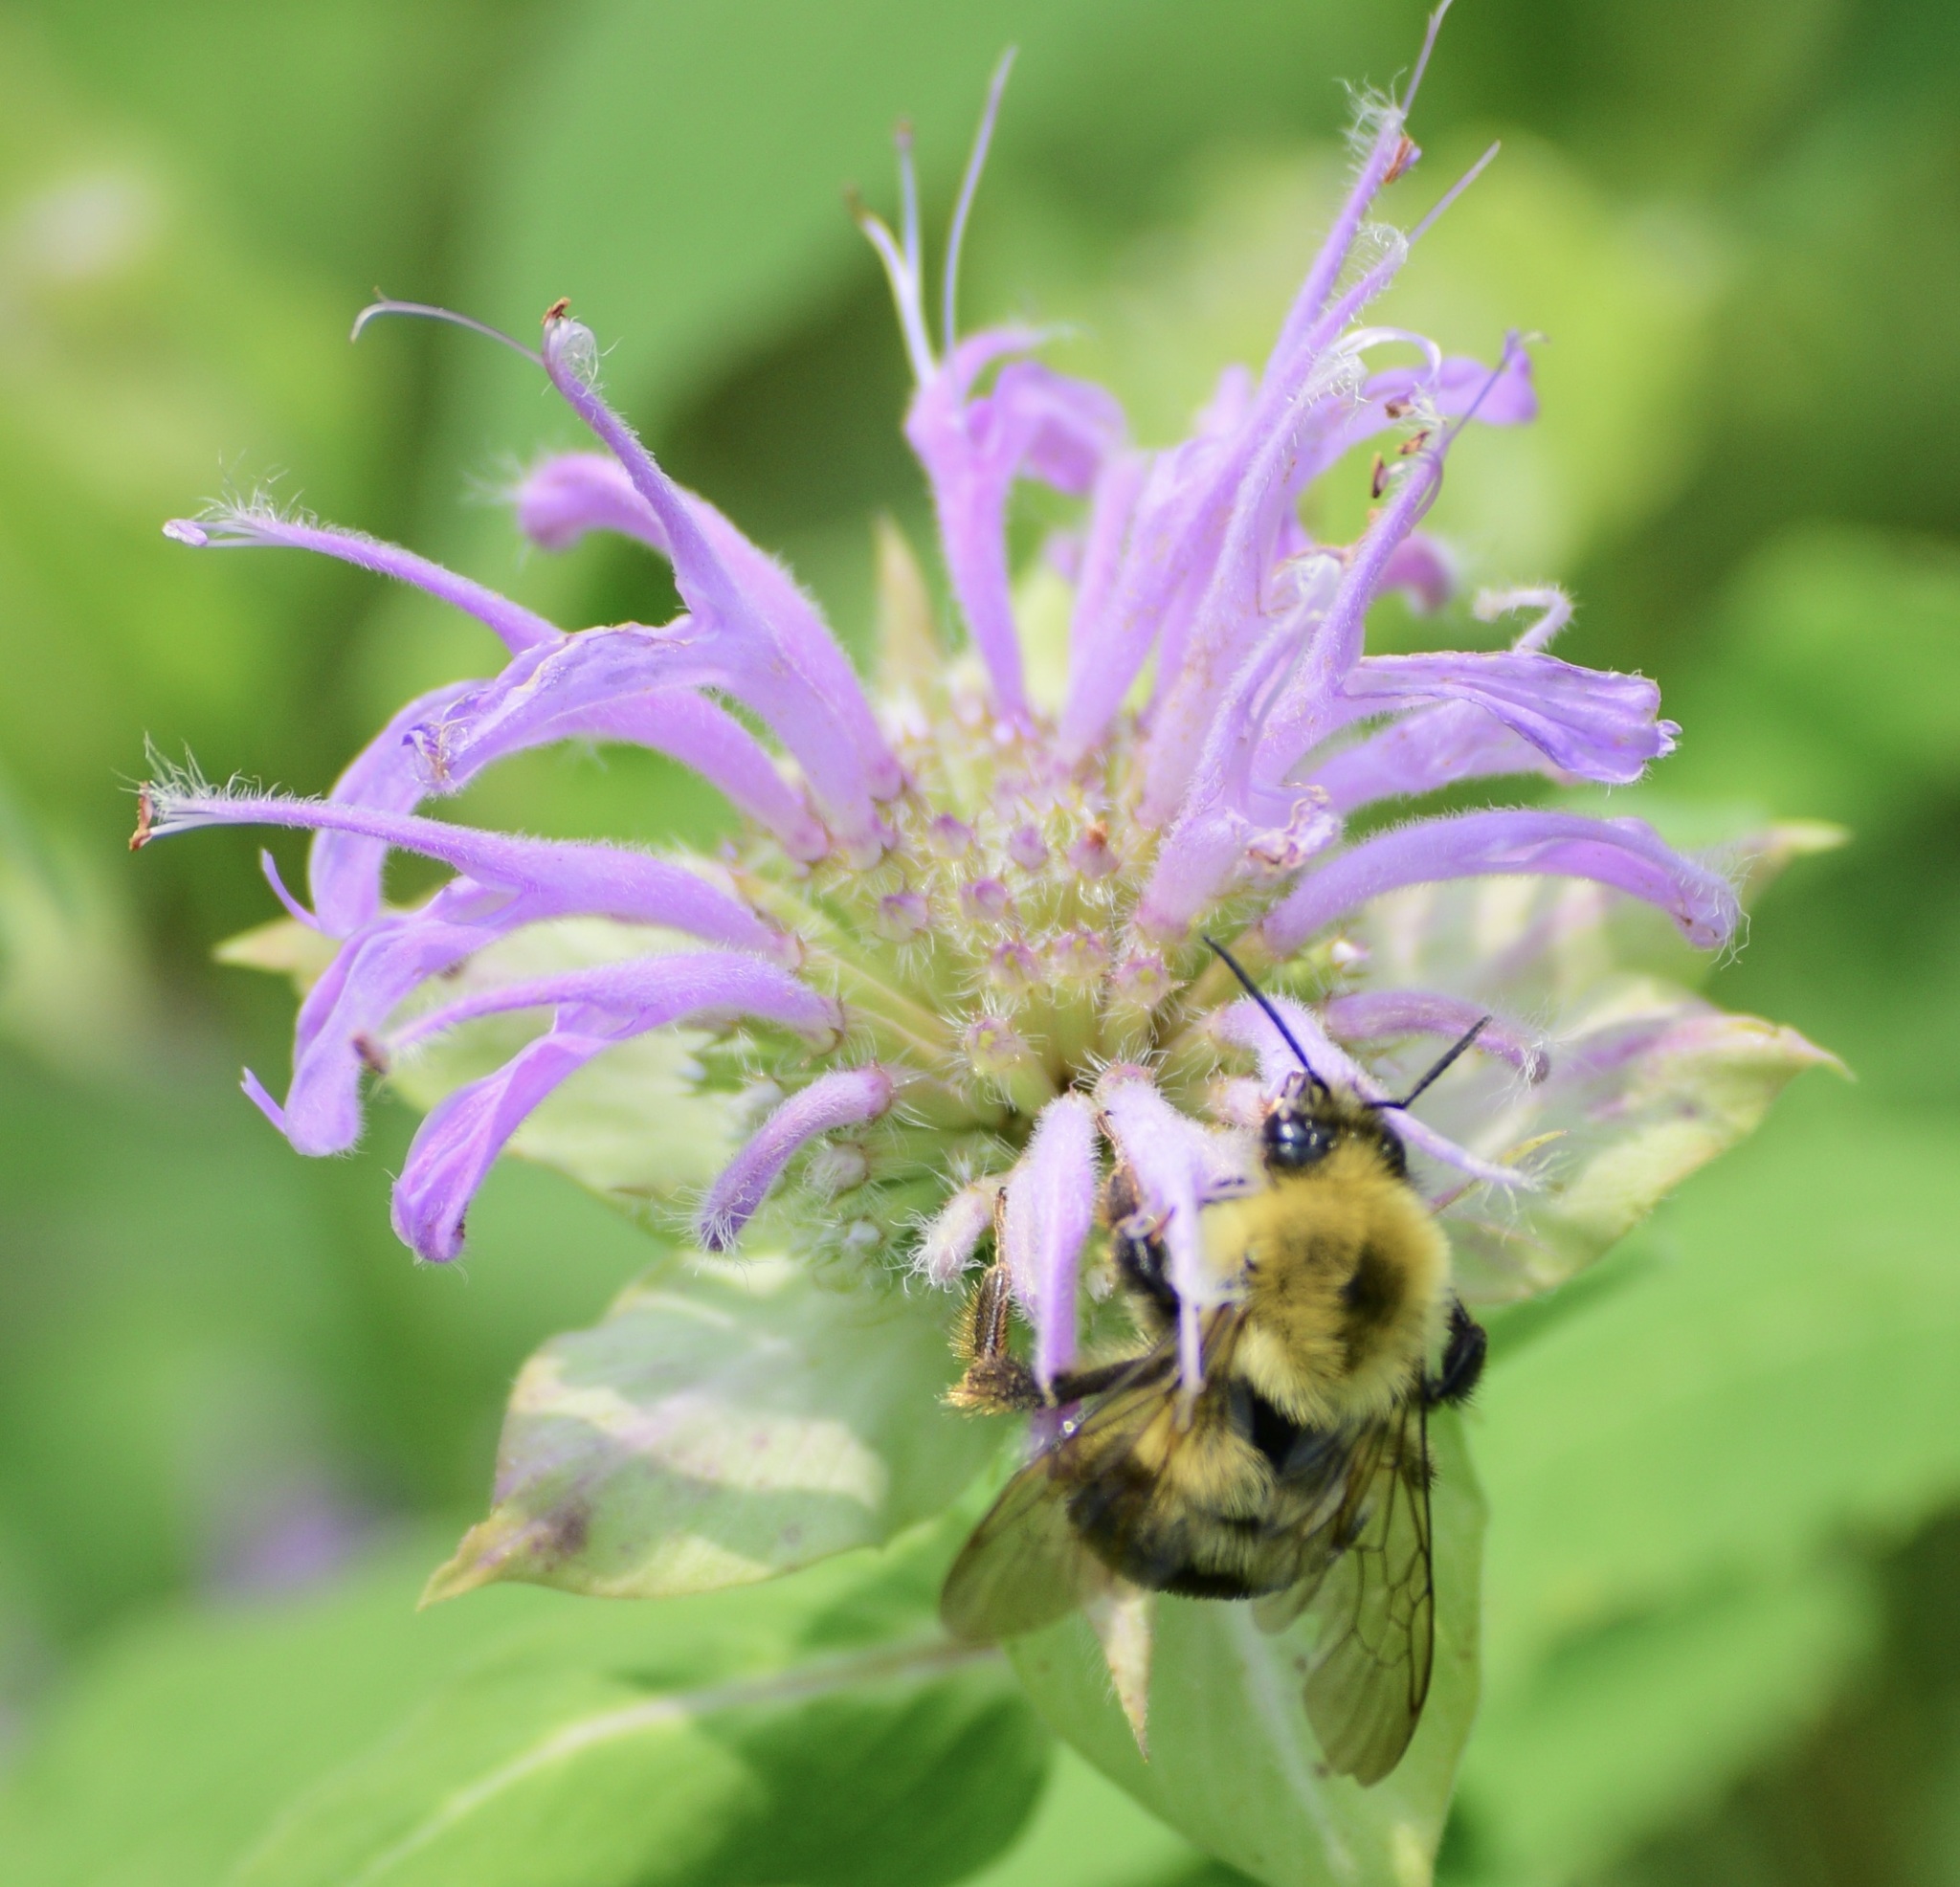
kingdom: Animalia
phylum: Arthropoda
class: Insecta
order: Hymenoptera
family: Apidae
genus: Bombus
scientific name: Bombus bimaculatus
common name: Two-spotted bumble bee
